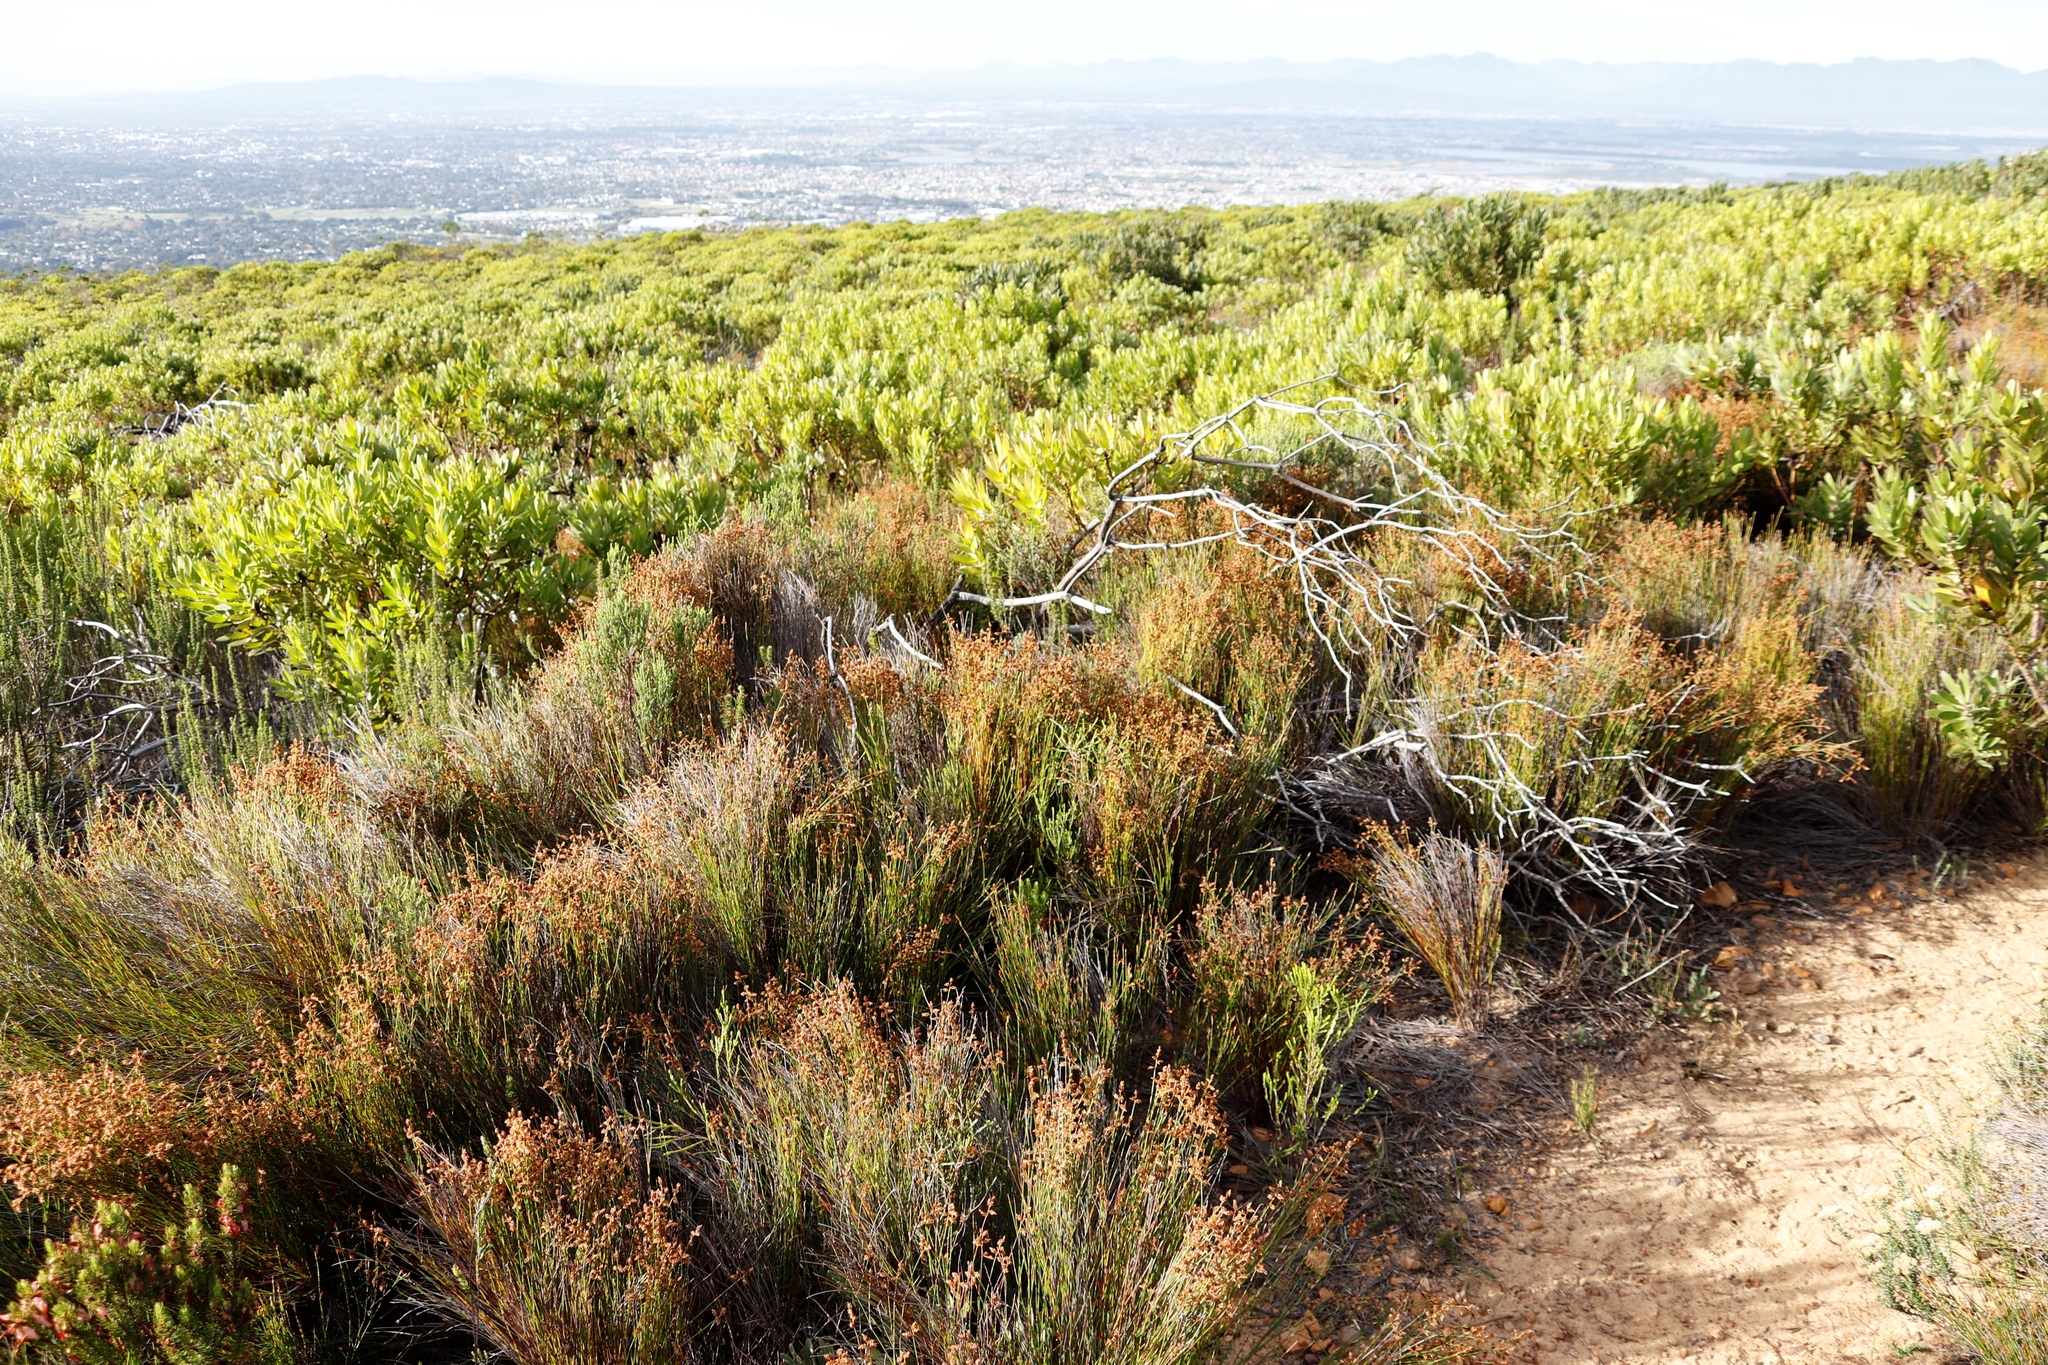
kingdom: Plantae
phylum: Tracheophyta
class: Liliopsida
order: Poales
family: Restionaceae
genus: Mastersiella
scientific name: Mastersiella digitata
